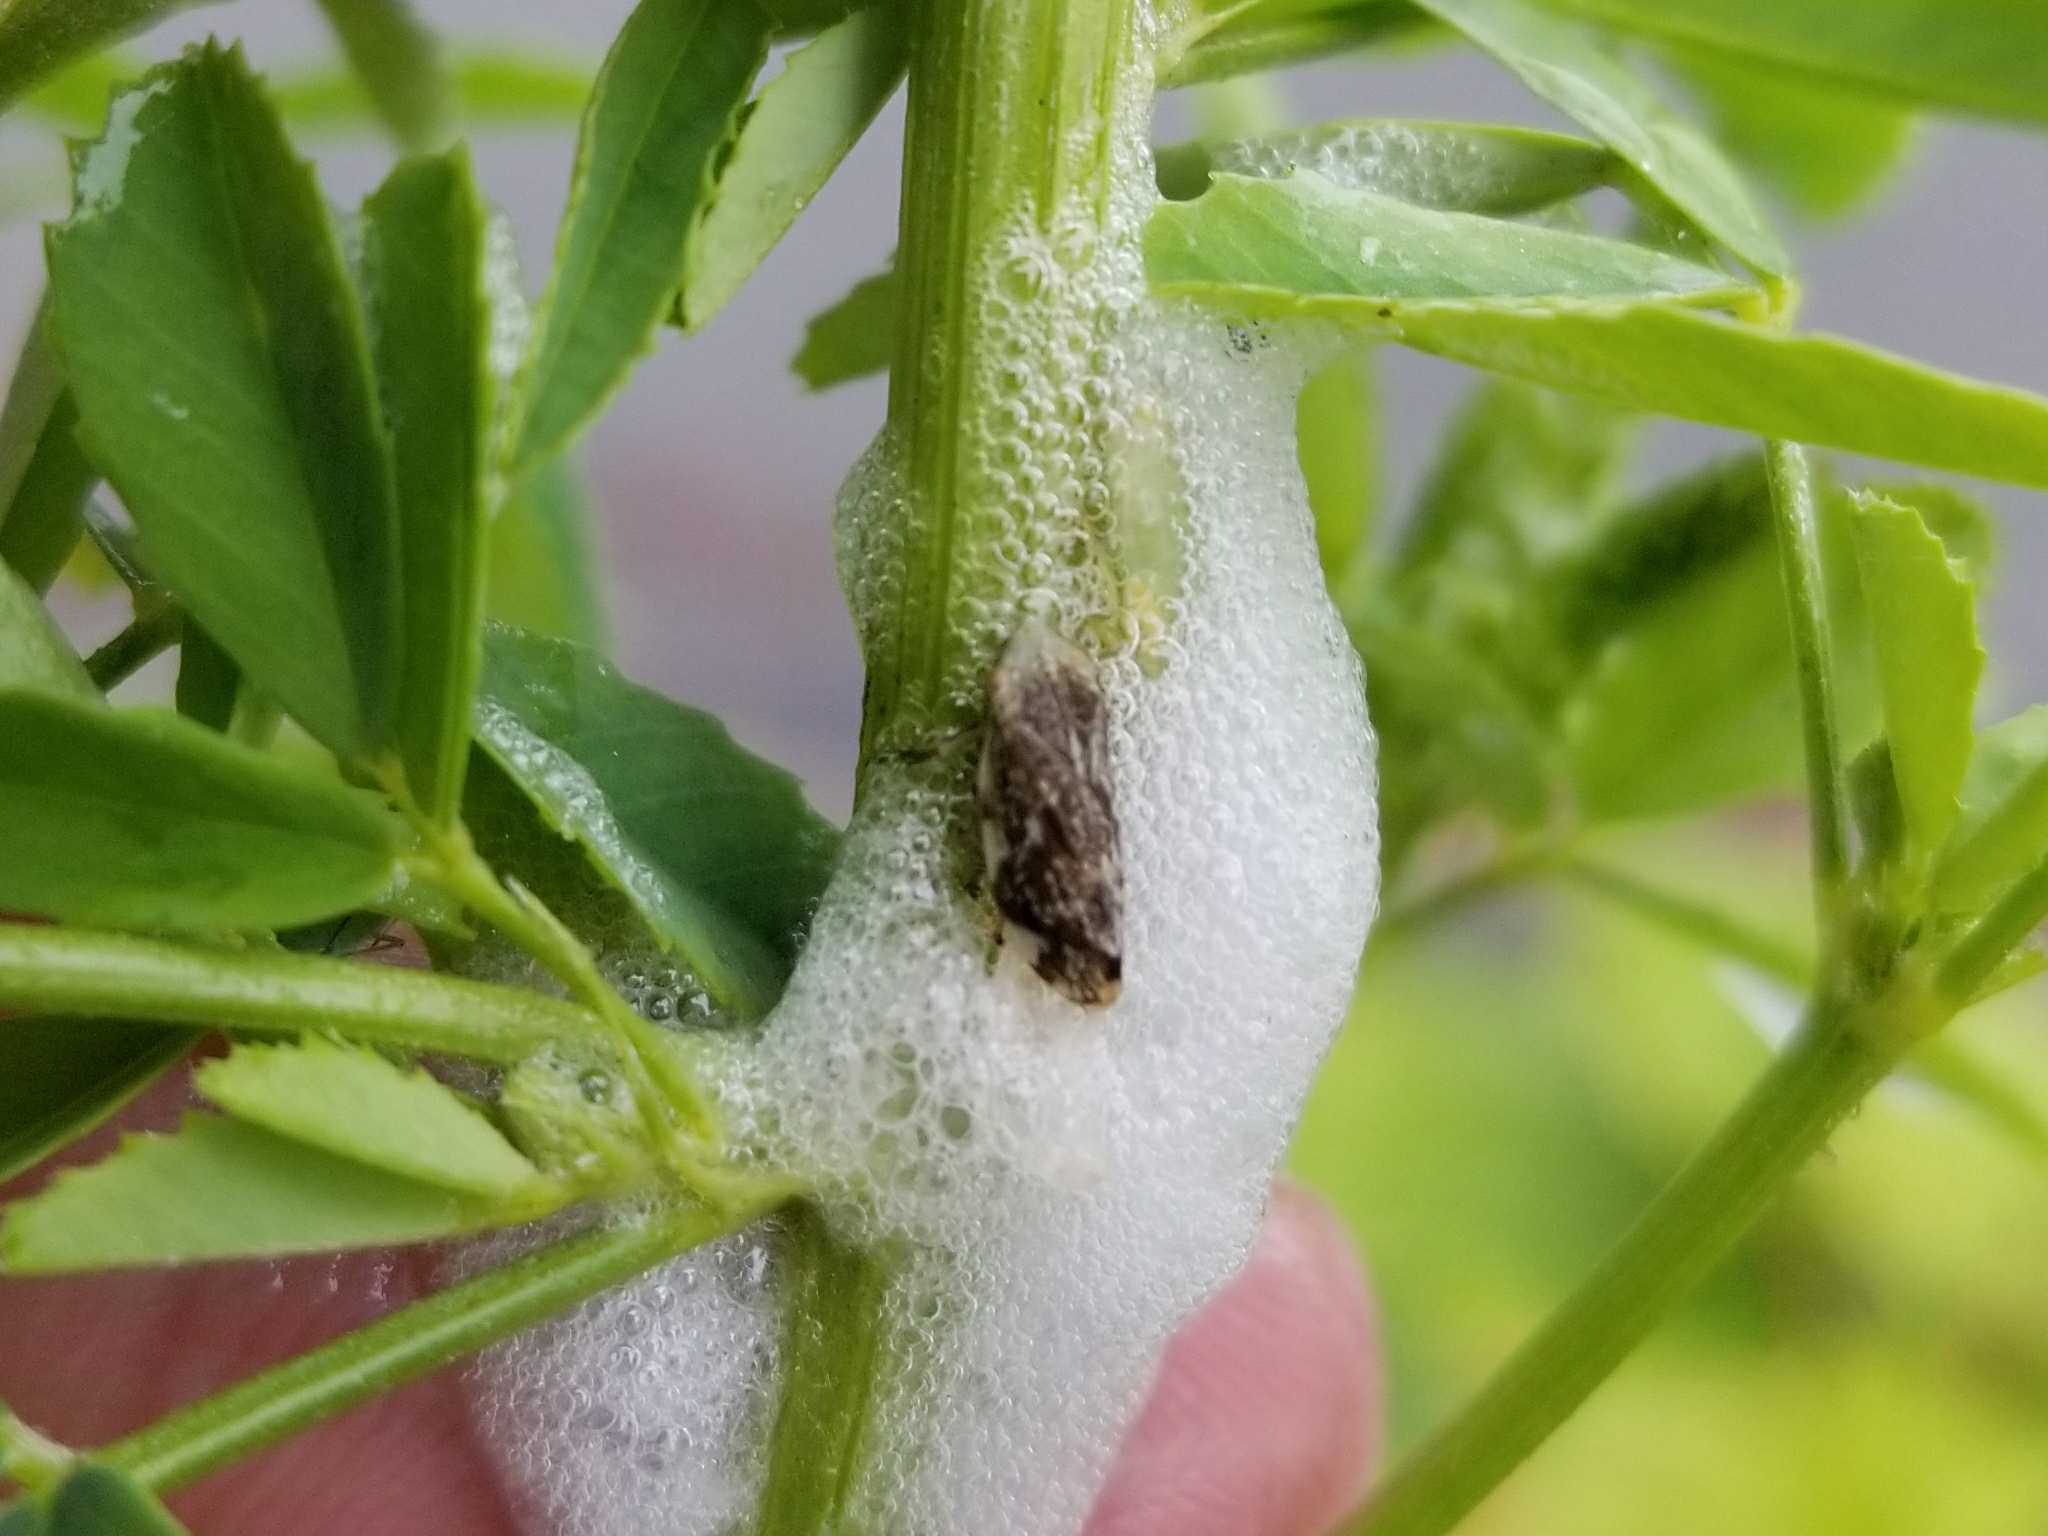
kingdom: Animalia
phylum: Arthropoda
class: Insecta
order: Hemiptera
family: Aphrophoridae
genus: Philaenus
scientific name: Philaenus spumarius
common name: Meadow spittlebug
